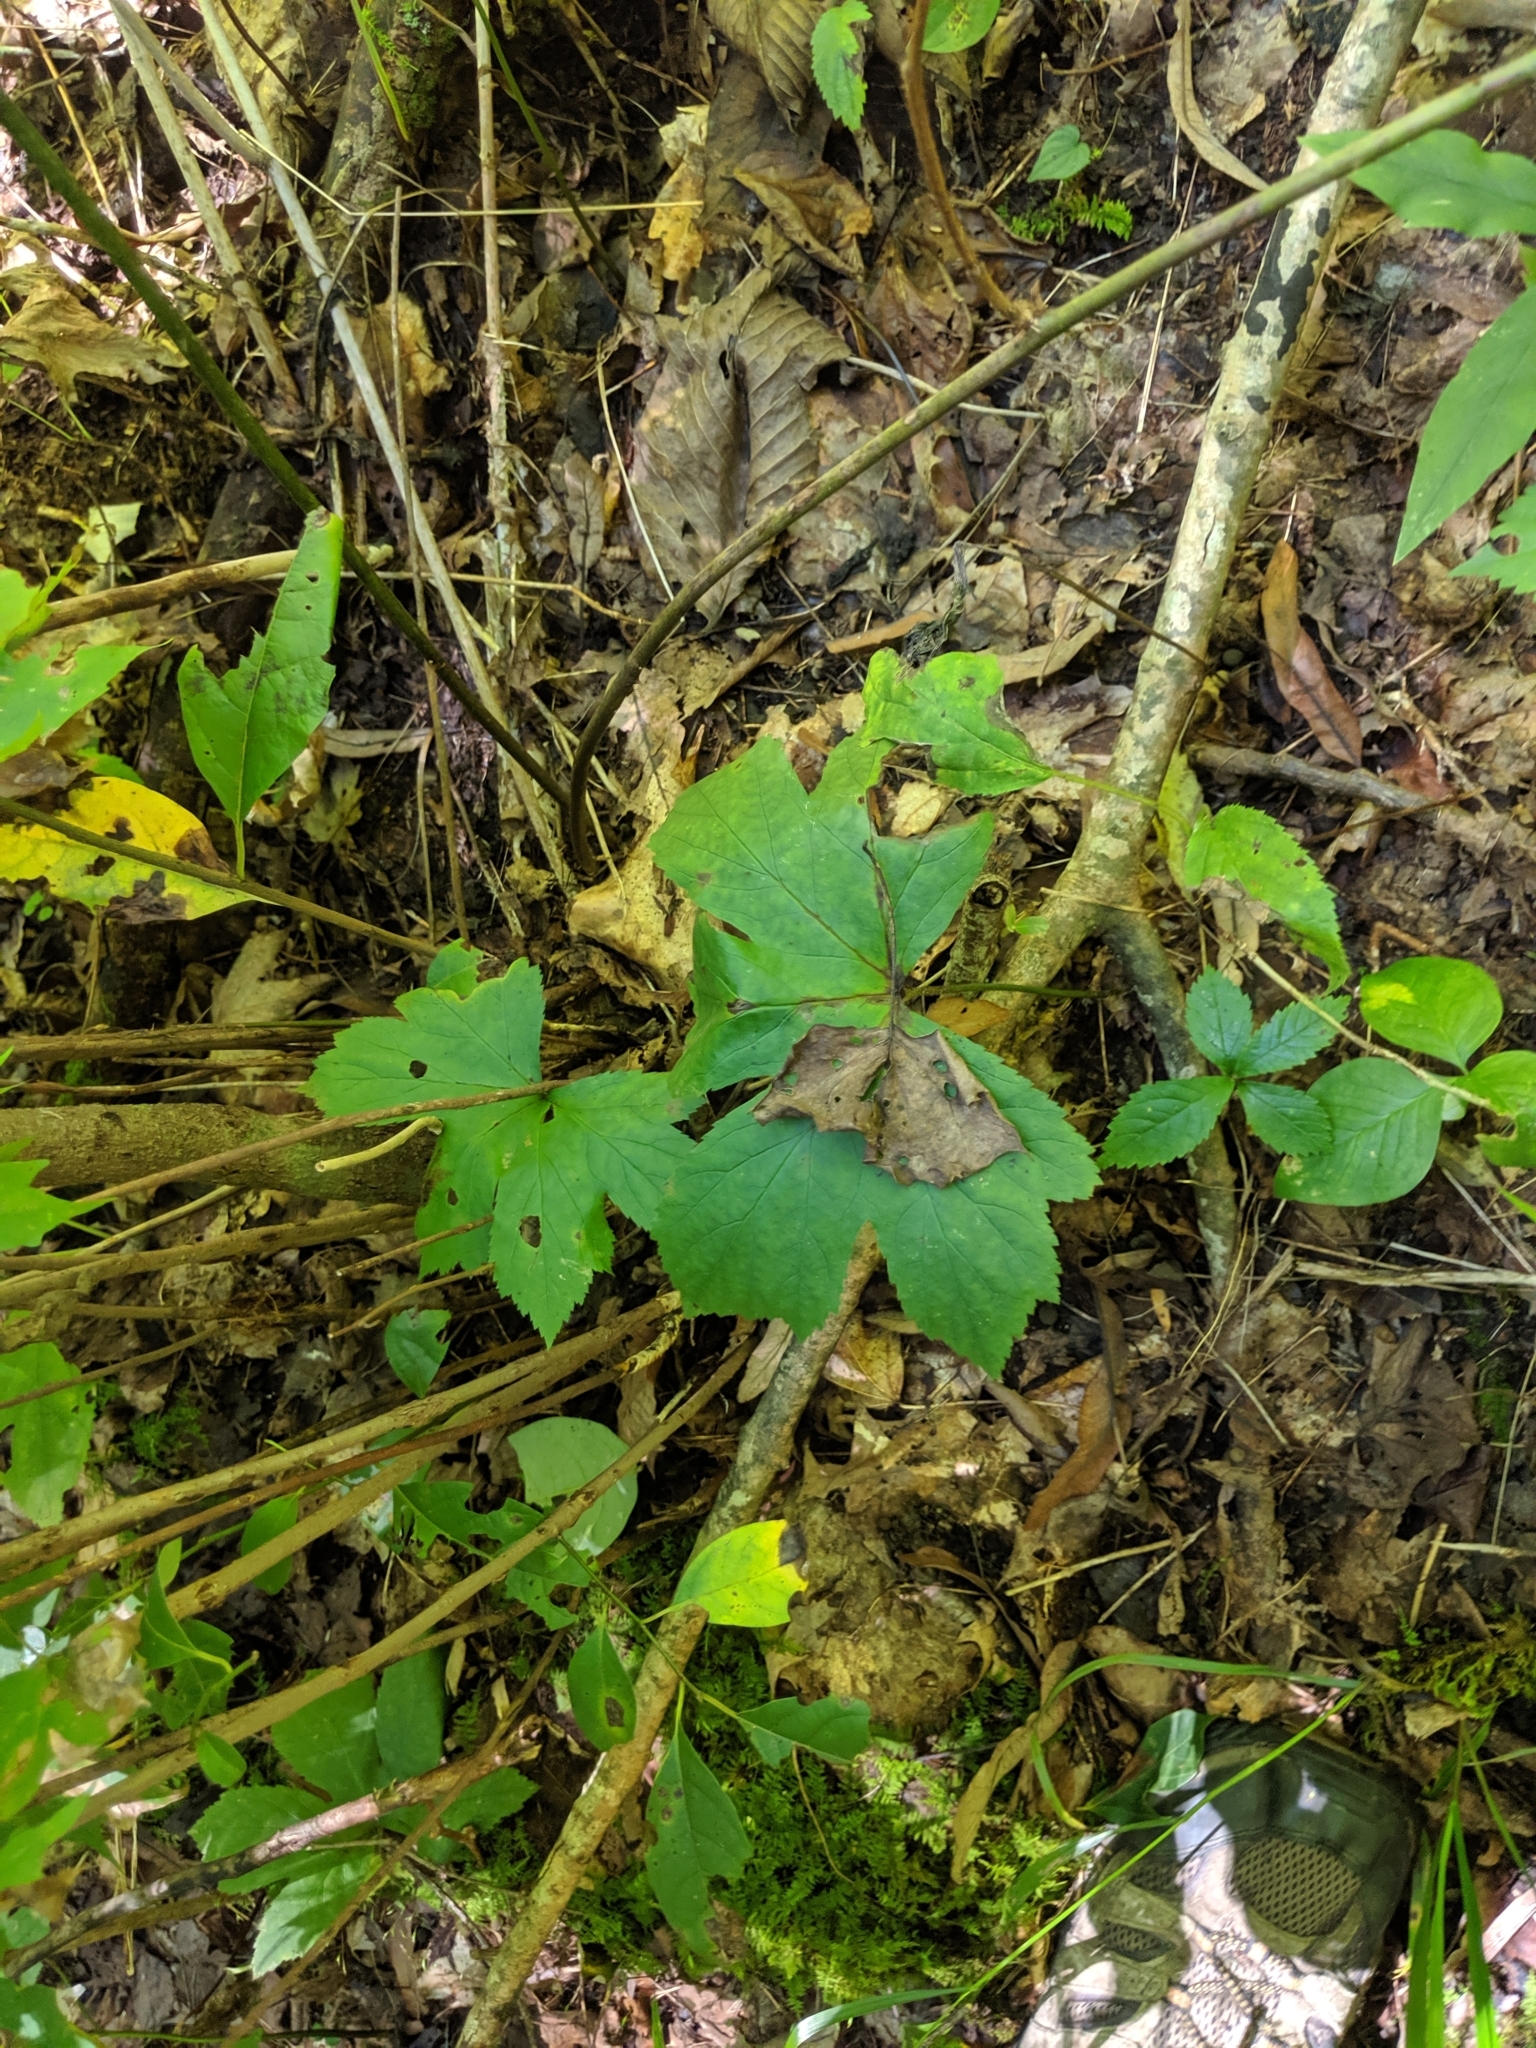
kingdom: Plantae
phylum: Tracheophyta
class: Magnoliopsida
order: Ranunculales
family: Ranunculaceae
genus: Hydrastis
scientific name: Hydrastis canadensis
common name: Goldenseal
